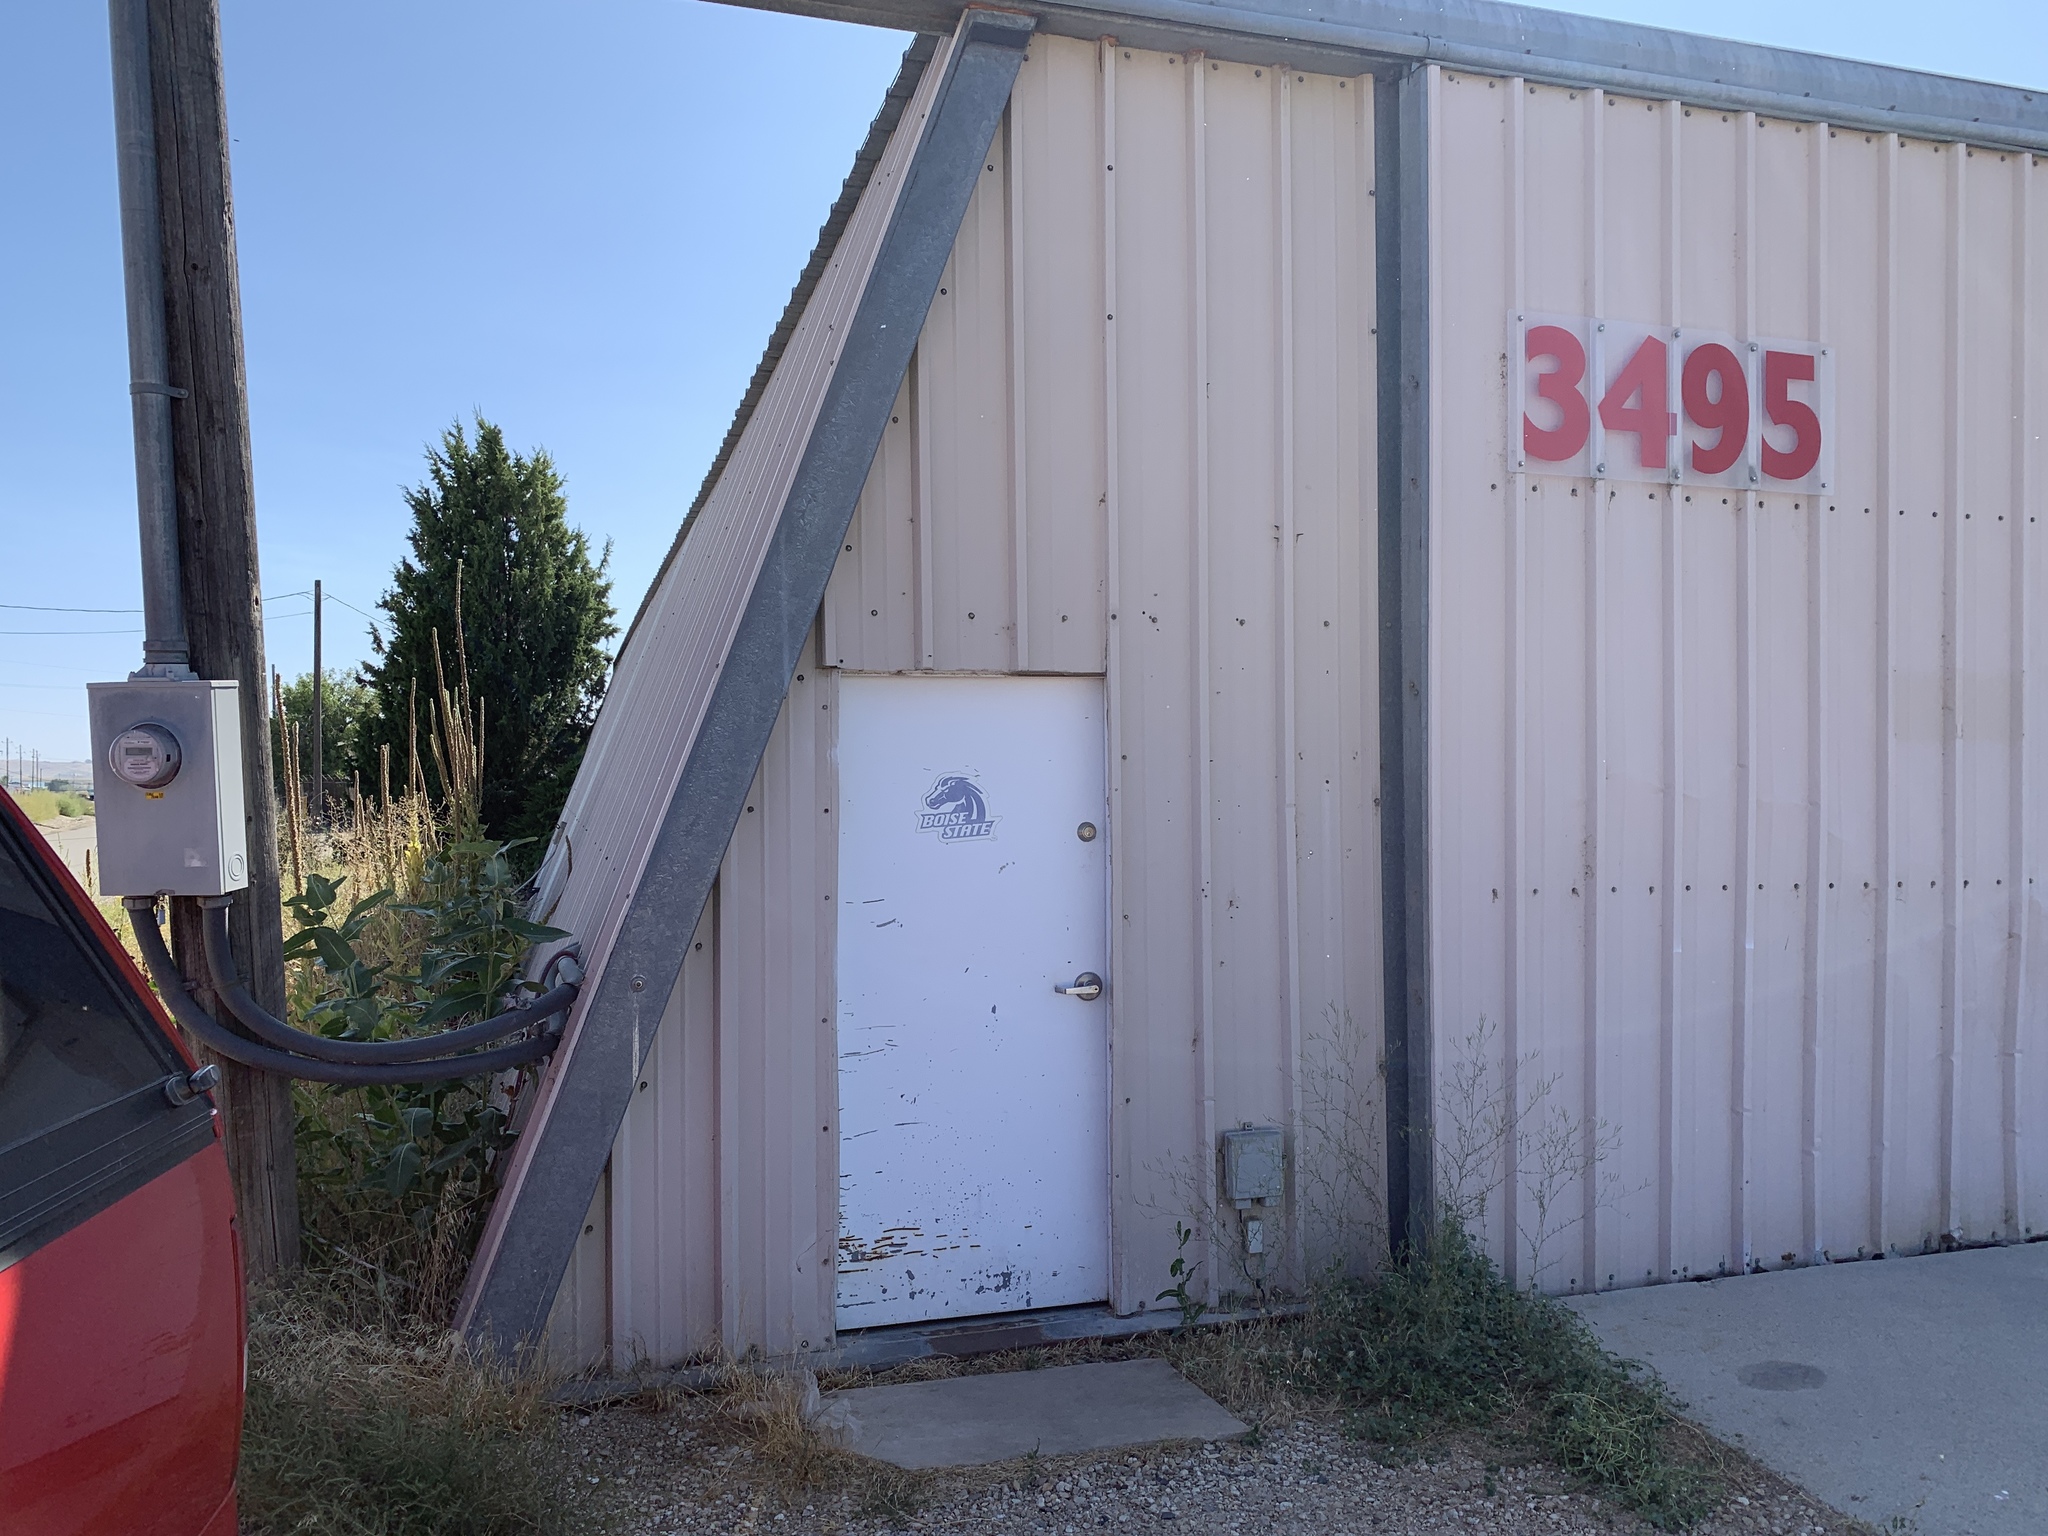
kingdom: Plantae
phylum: Tracheophyta
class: Magnoliopsida
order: Gentianales
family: Apocynaceae
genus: Asclepias
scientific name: Asclepias speciosa
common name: Showy milkweed
